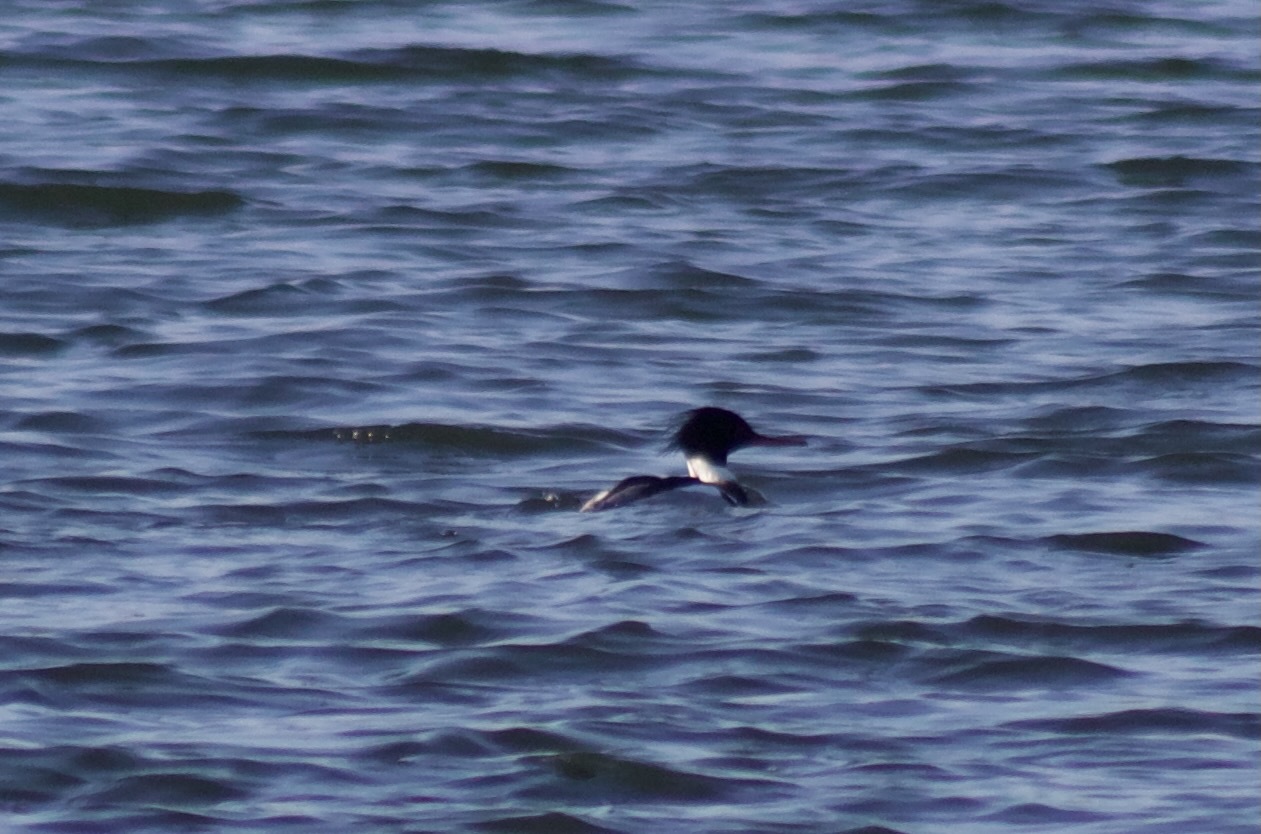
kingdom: Animalia
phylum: Chordata
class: Aves
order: Anseriformes
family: Anatidae
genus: Mergus
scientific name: Mergus serrator
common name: Red-breasted merganser
